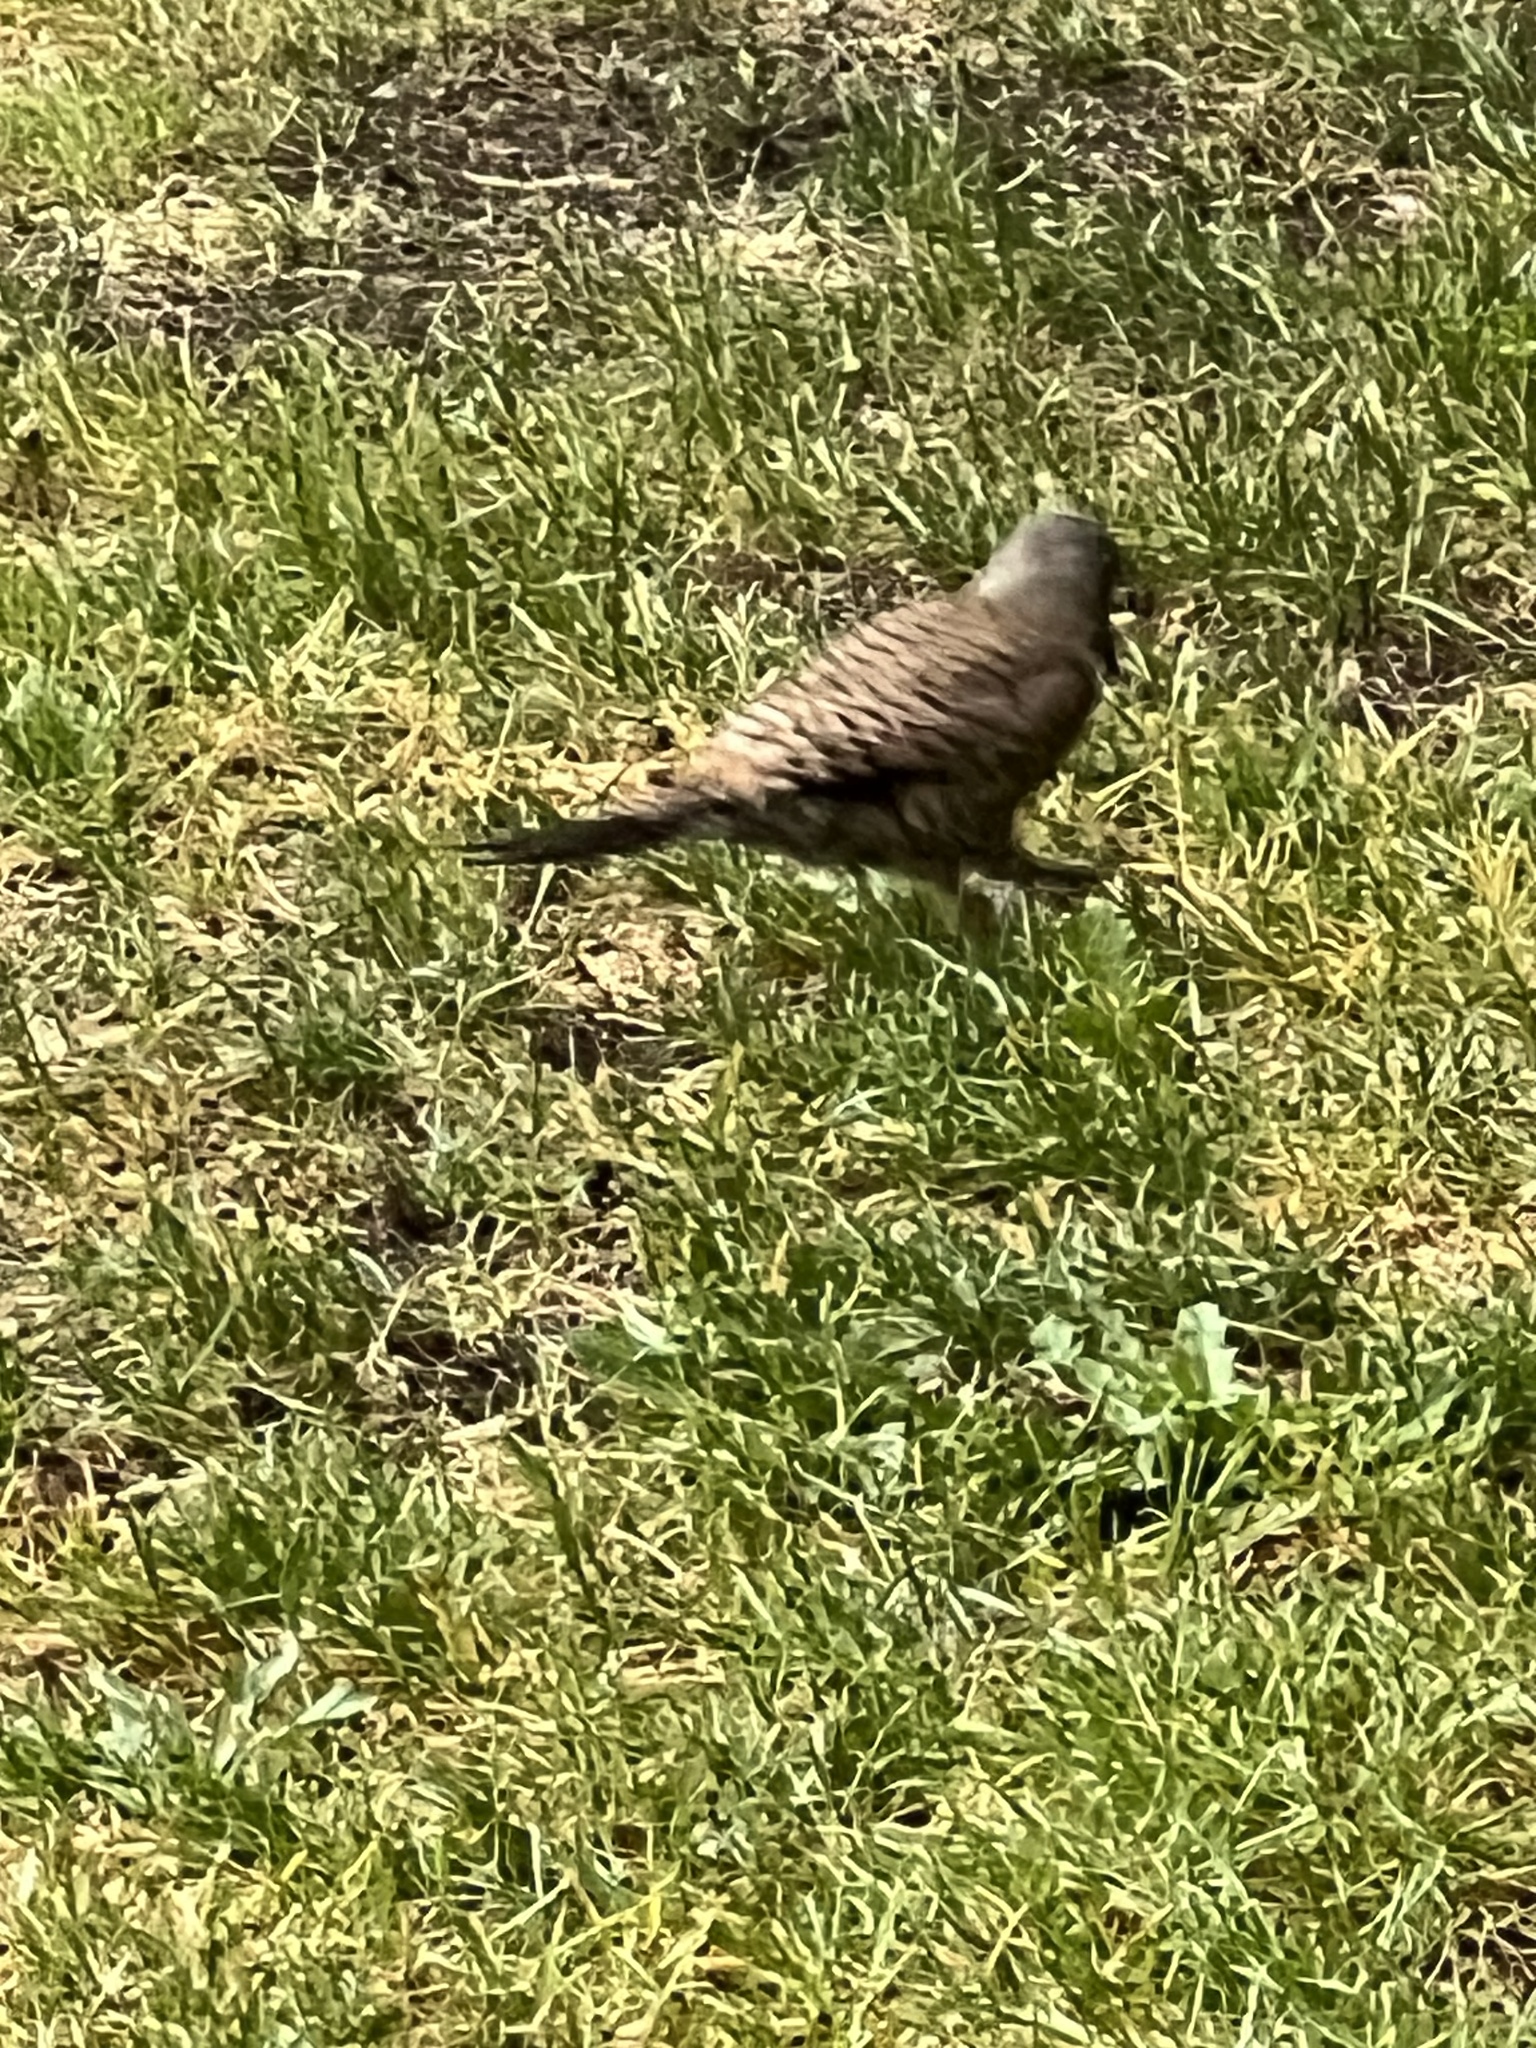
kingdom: Animalia
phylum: Chordata
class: Aves
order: Piciformes
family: Picidae
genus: Colaptes
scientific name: Colaptes auratus
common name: Northern flicker
